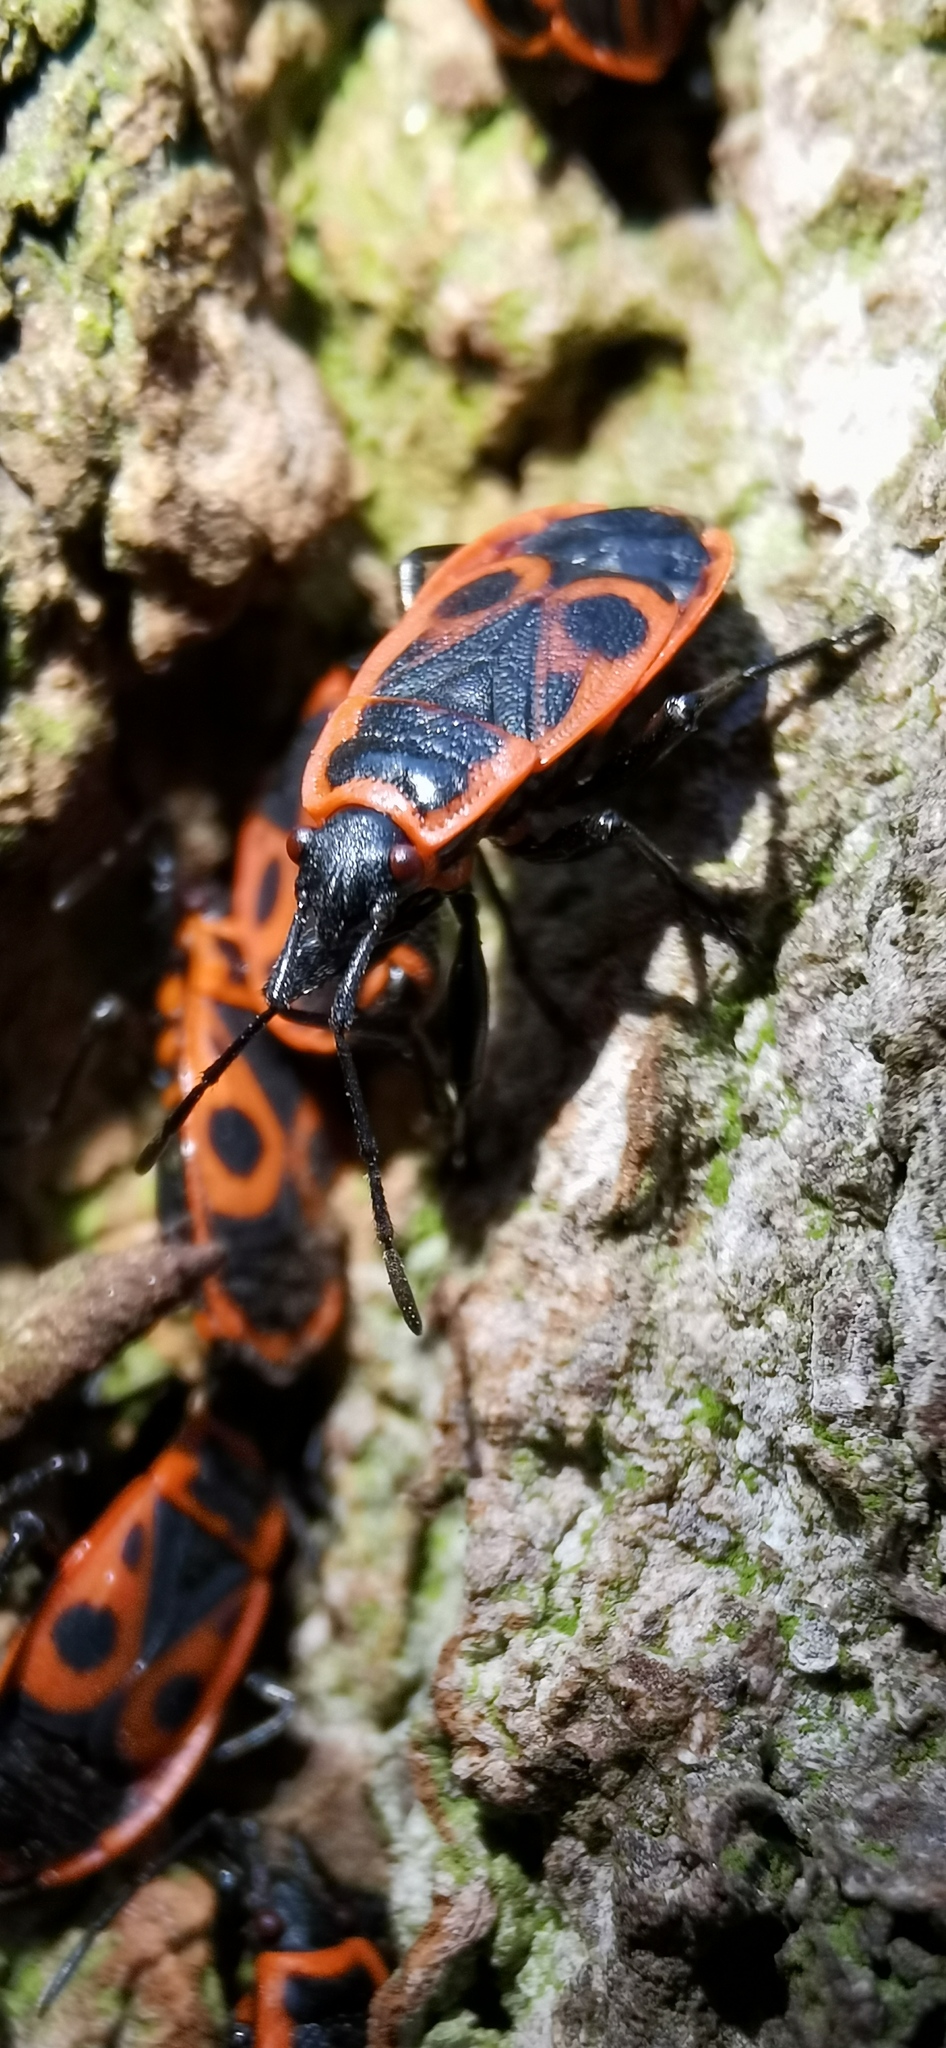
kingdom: Animalia
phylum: Arthropoda
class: Insecta
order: Hemiptera
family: Pyrrhocoridae
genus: Pyrrhocoris
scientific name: Pyrrhocoris apterus
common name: Firebug
